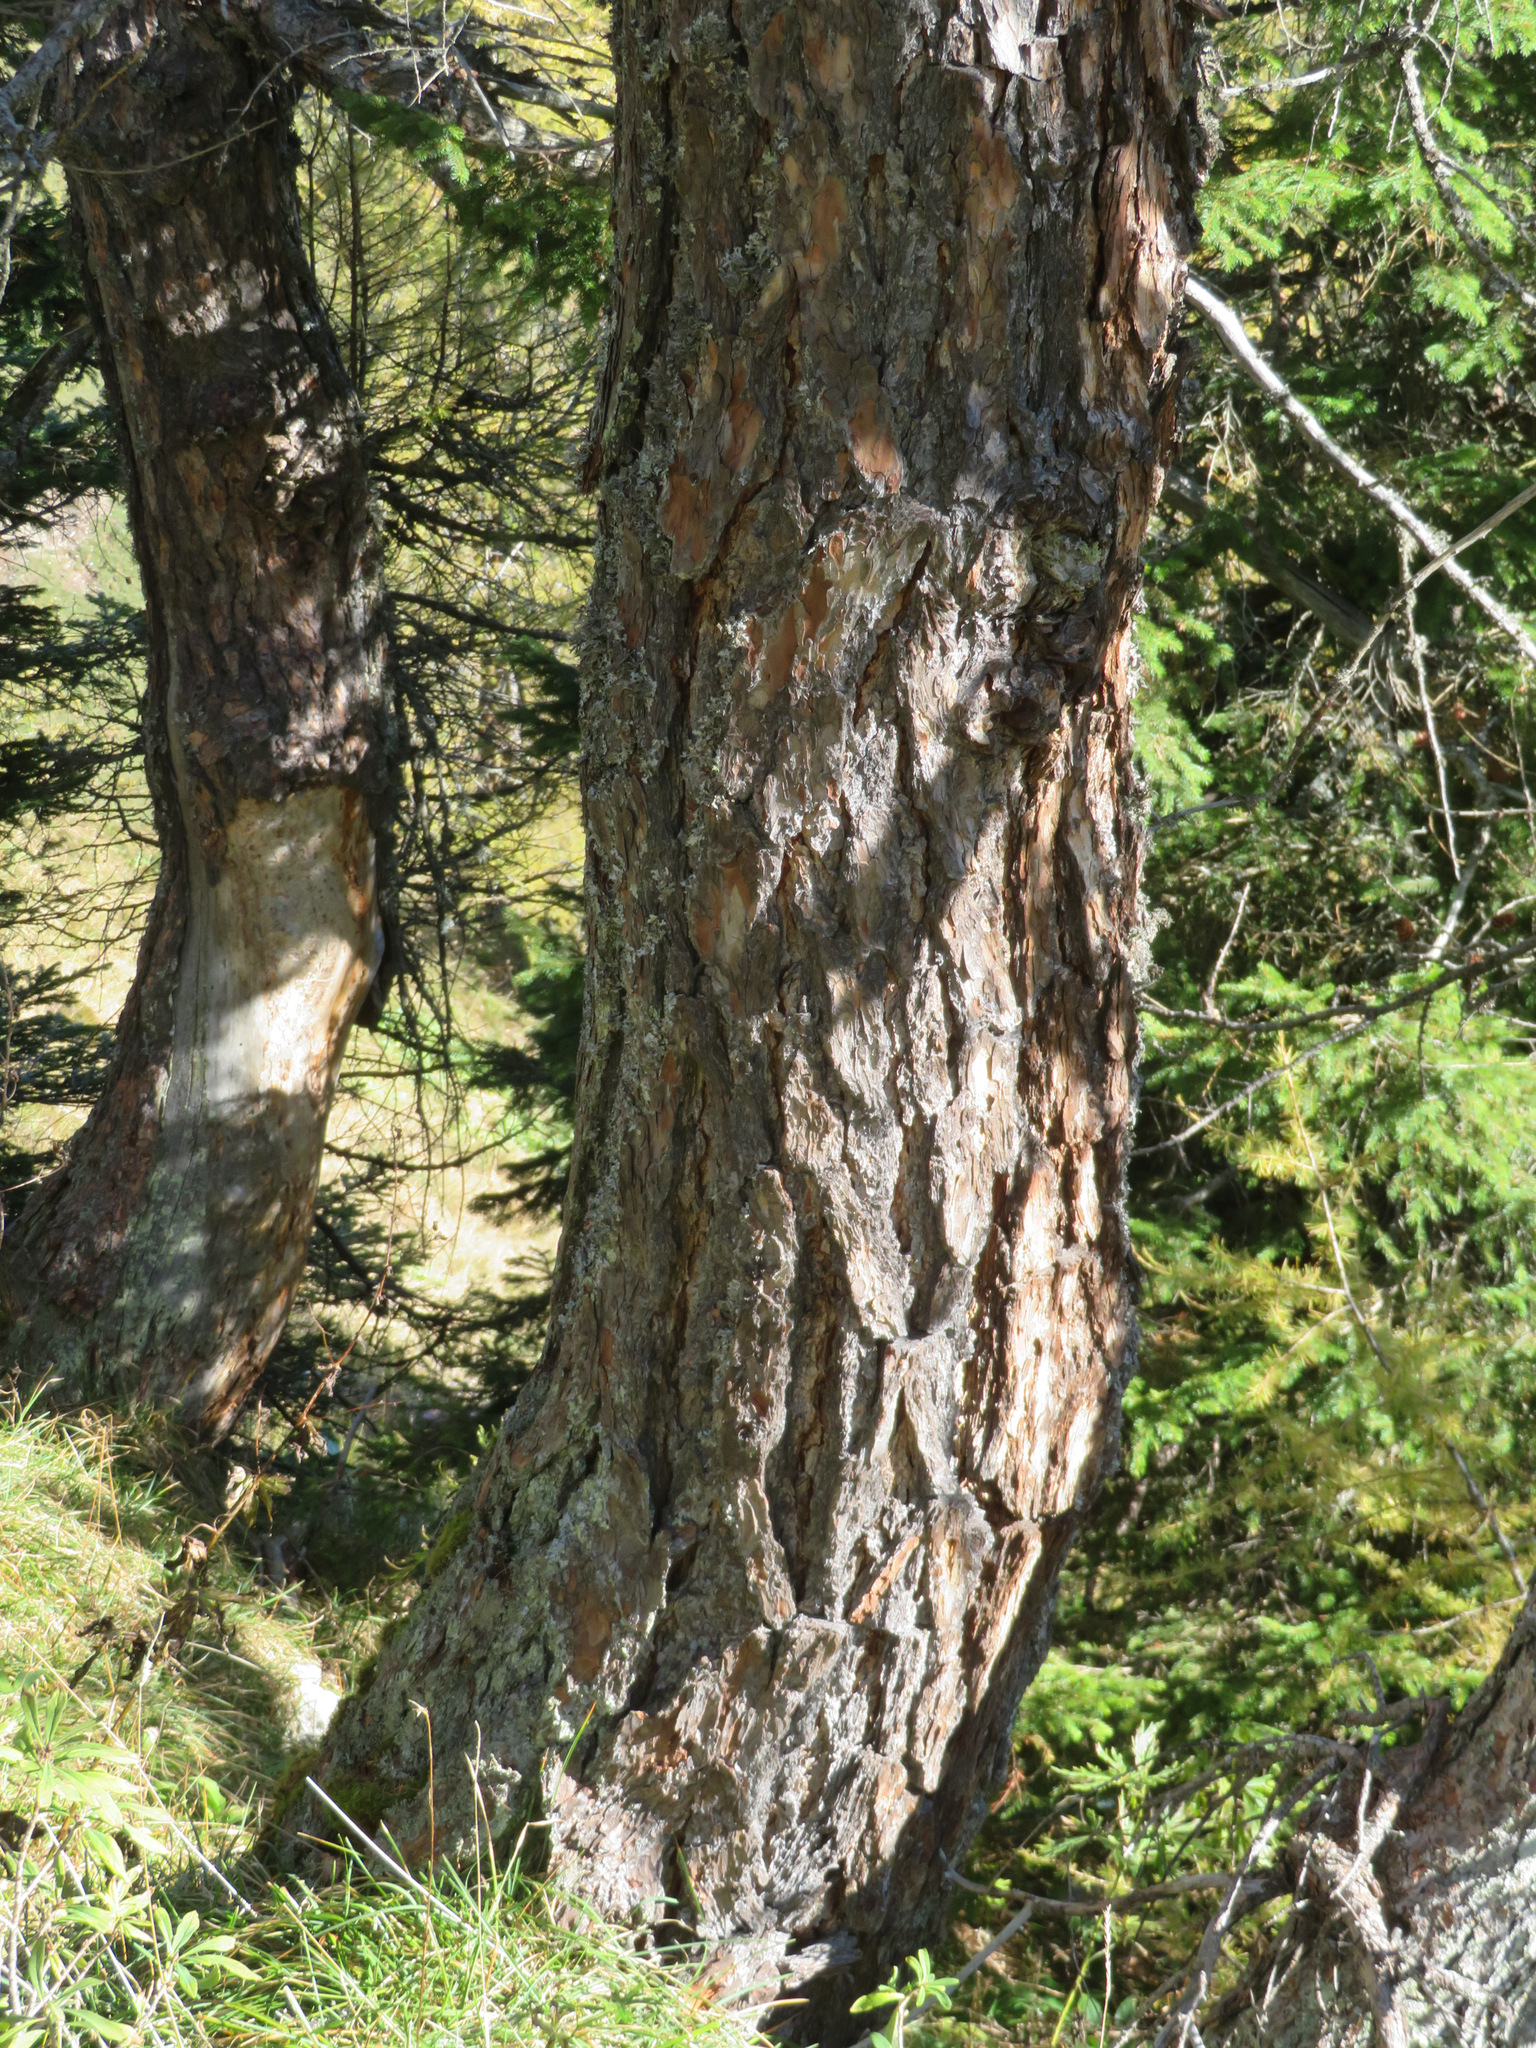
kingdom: Plantae
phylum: Tracheophyta
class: Pinopsida
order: Pinales
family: Pinaceae
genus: Larix
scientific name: Larix decidua
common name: European larch
